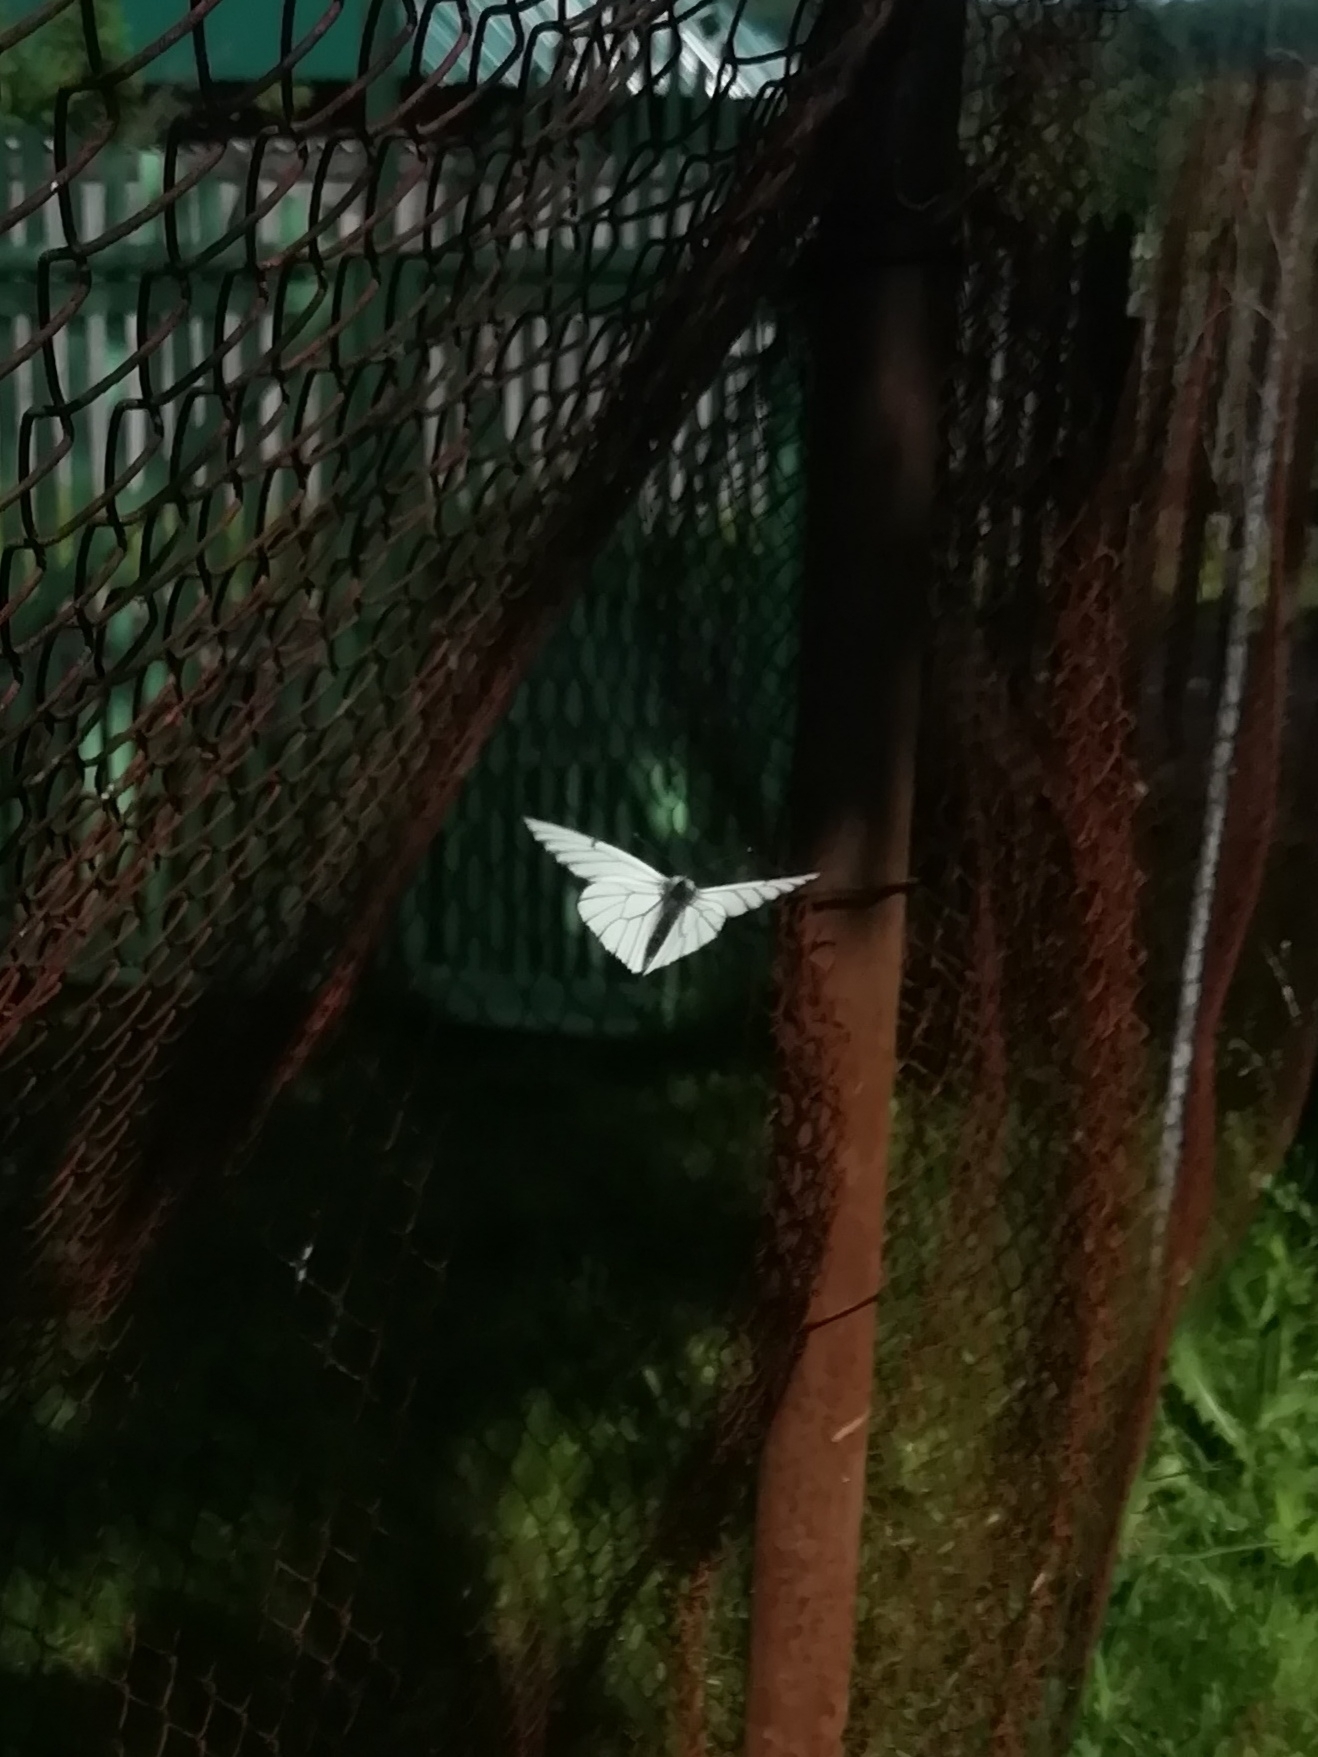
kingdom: Animalia
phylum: Arthropoda
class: Insecta
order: Lepidoptera
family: Pieridae
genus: Aporia
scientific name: Aporia crataegi
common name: Black-veined white
